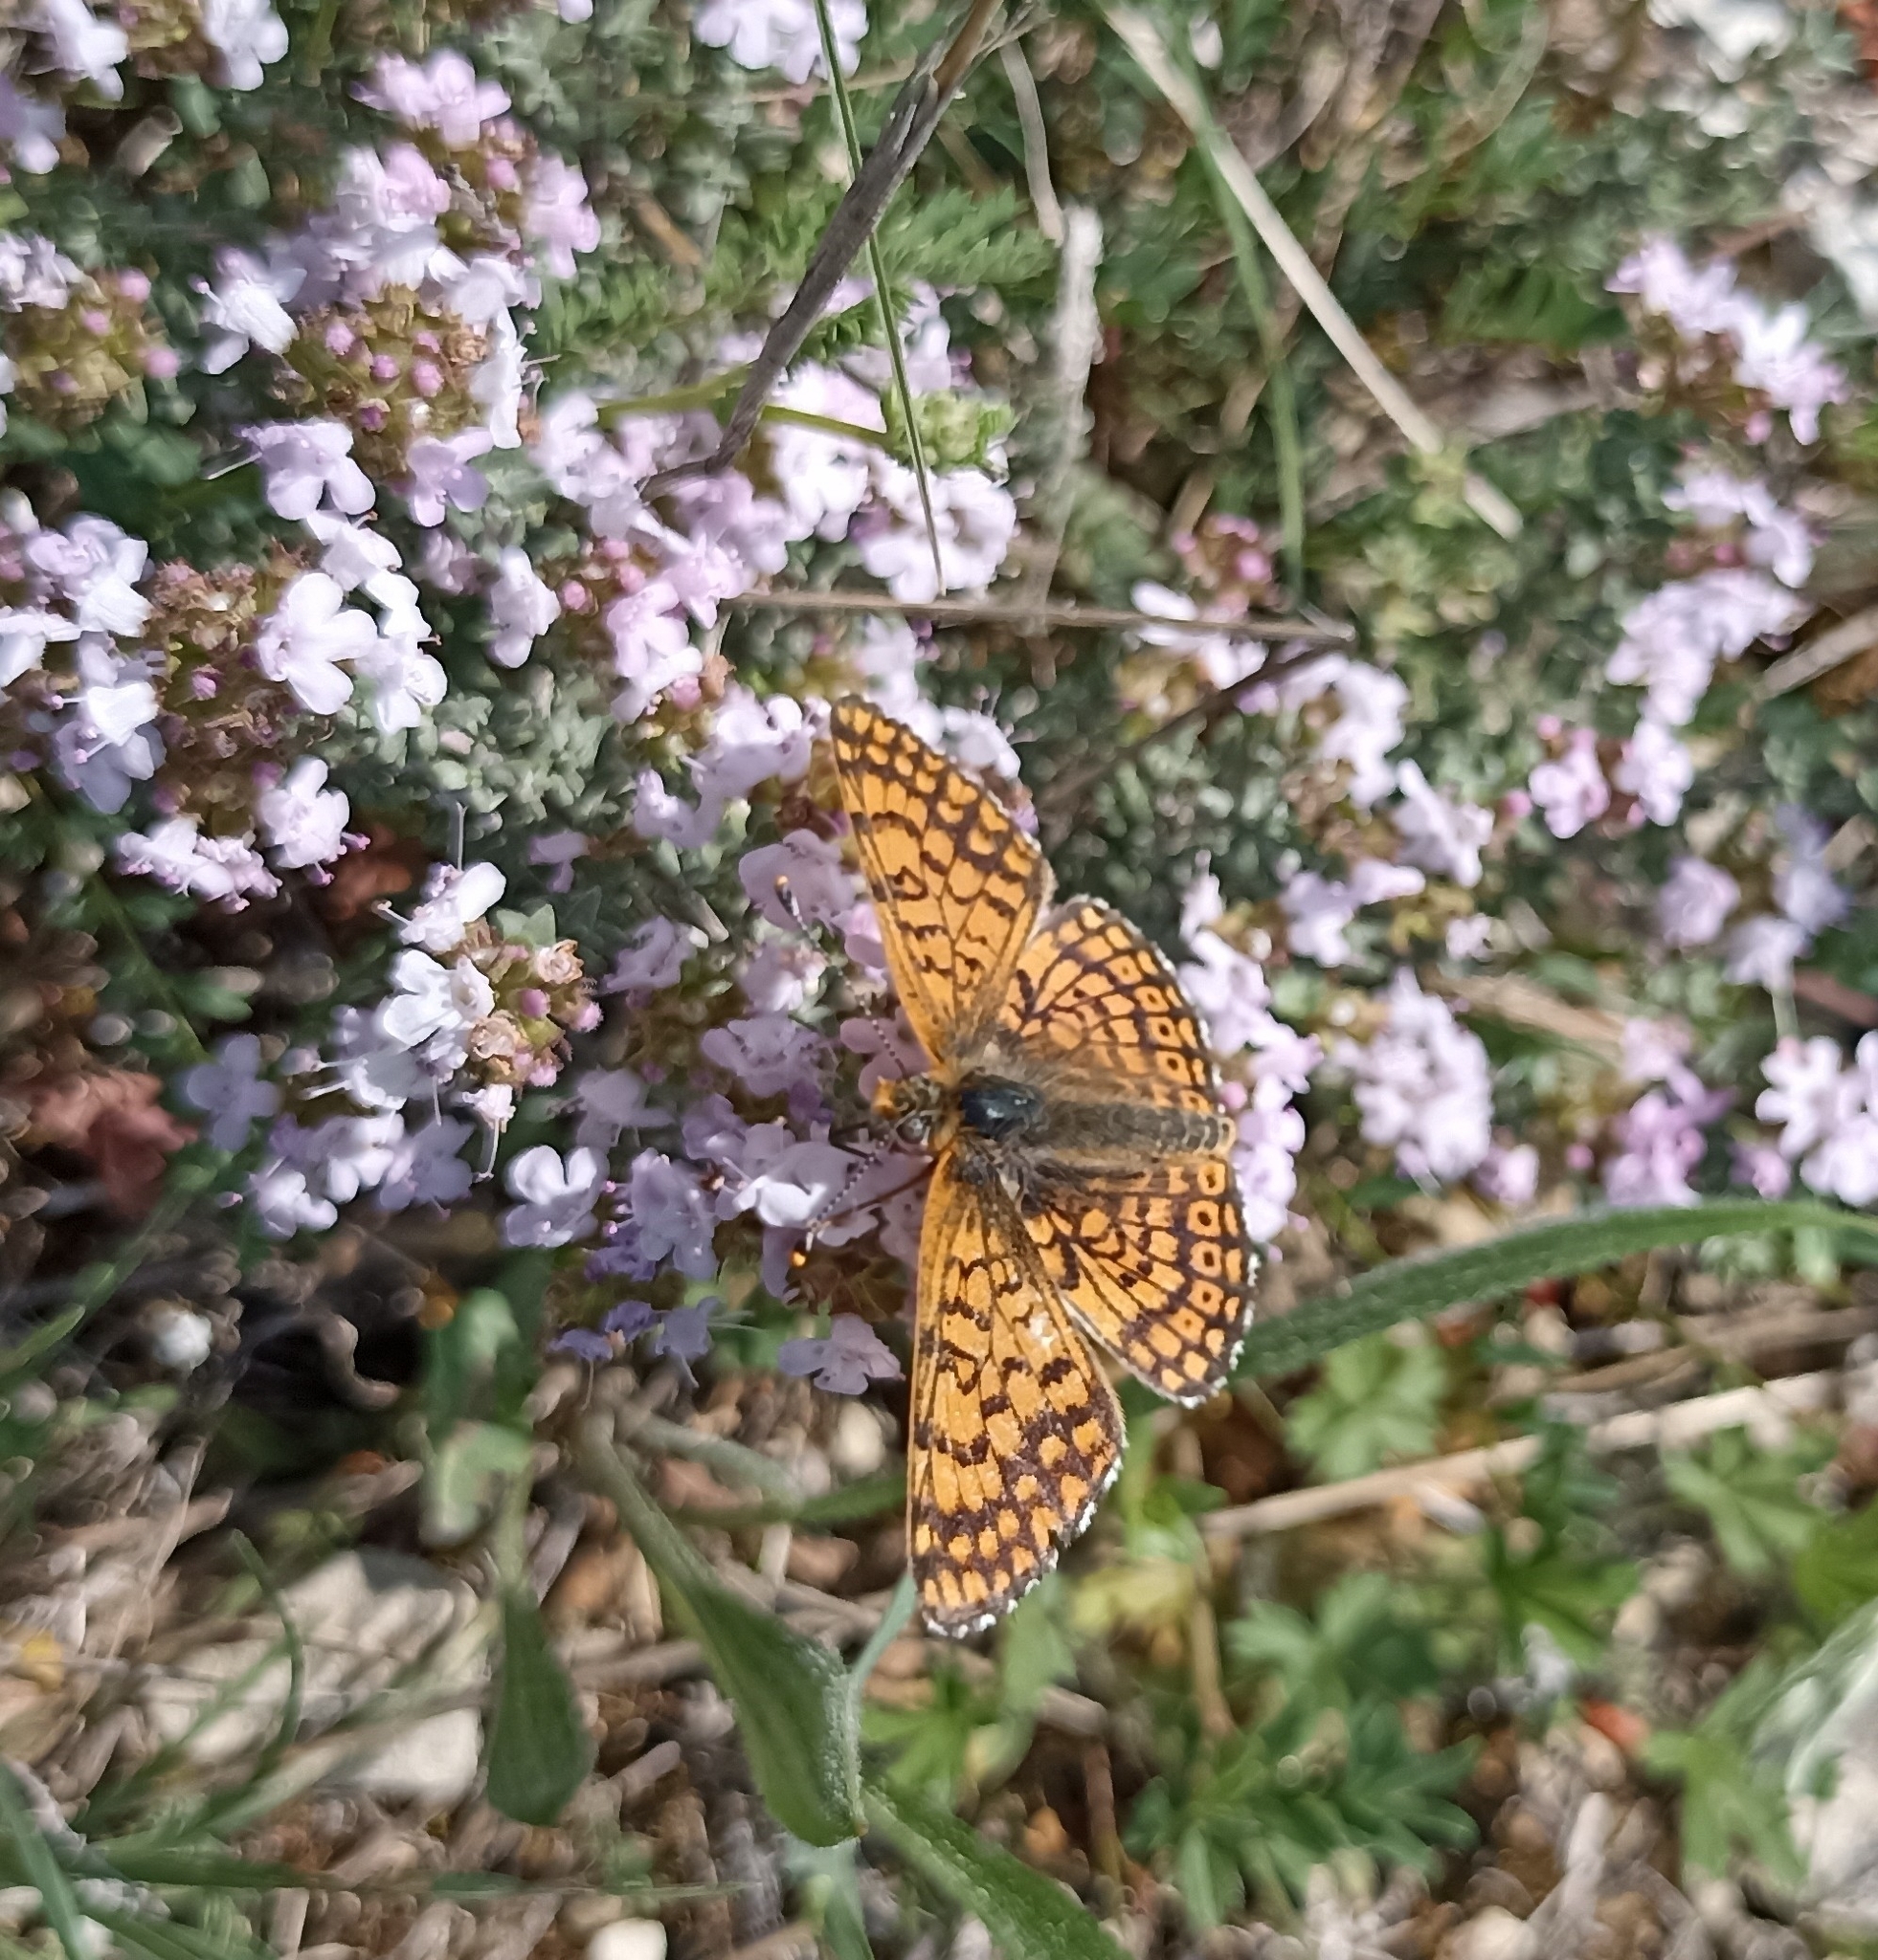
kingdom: Animalia
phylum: Arthropoda
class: Insecta
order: Lepidoptera
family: Nymphalidae
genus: Melitaea
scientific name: Melitaea cinxia
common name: Glanville fritillary
